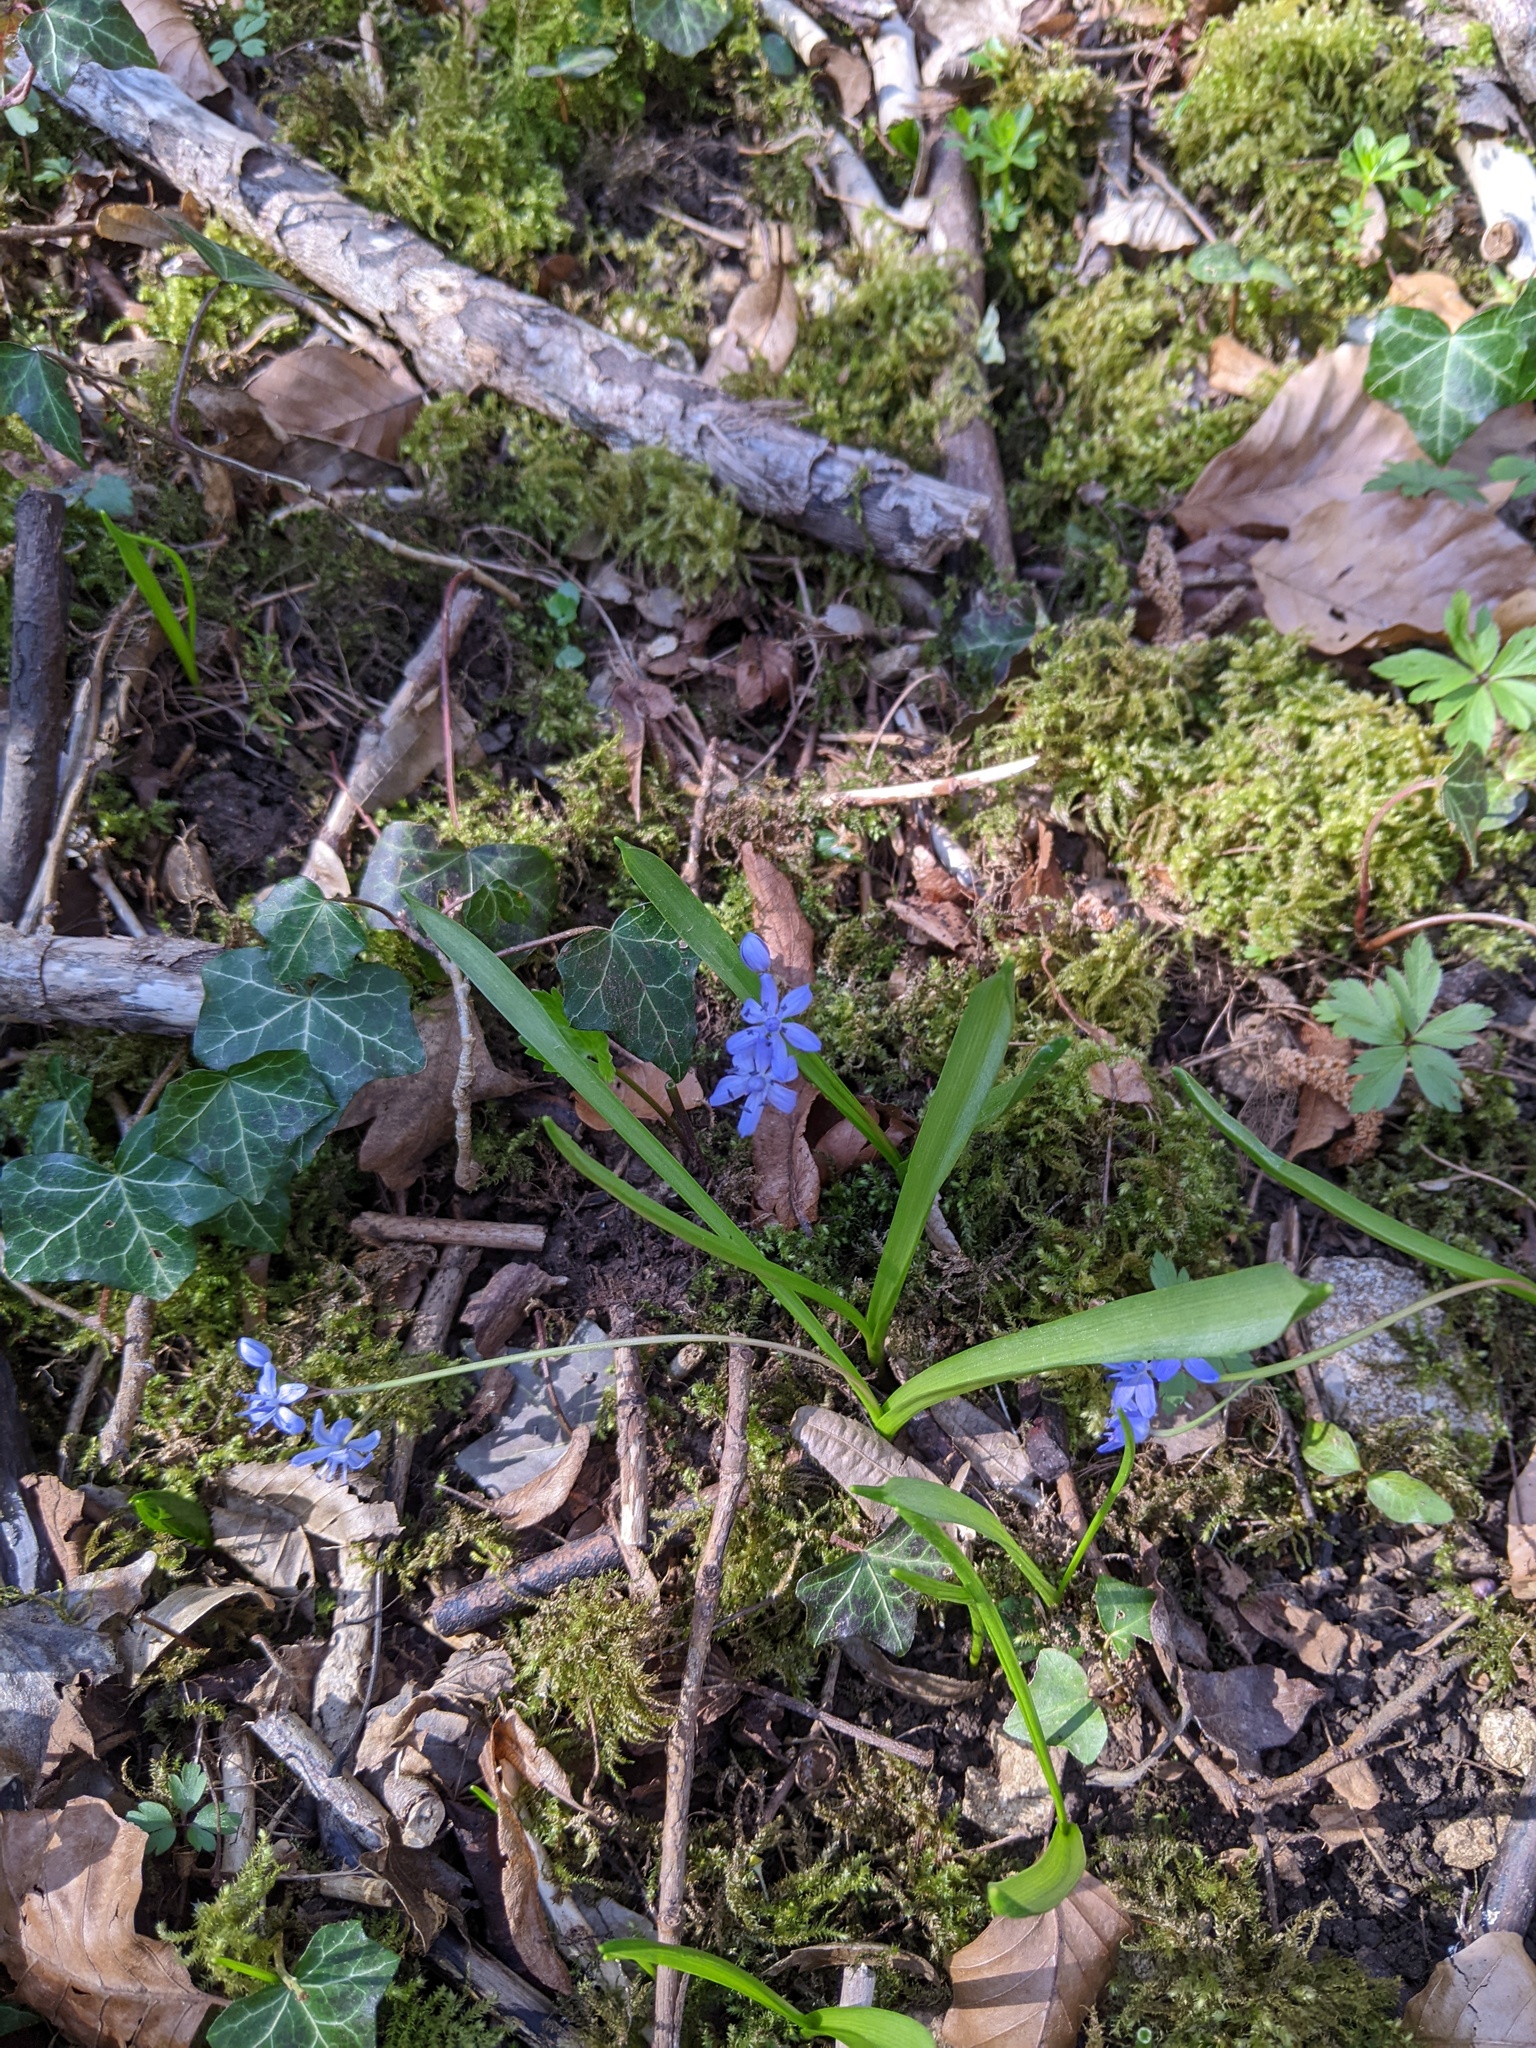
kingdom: Plantae
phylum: Tracheophyta
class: Liliopsida
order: Asparagales
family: Asparagaceae
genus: Scilla
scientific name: Scilla bifolia
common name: Alpine squill
